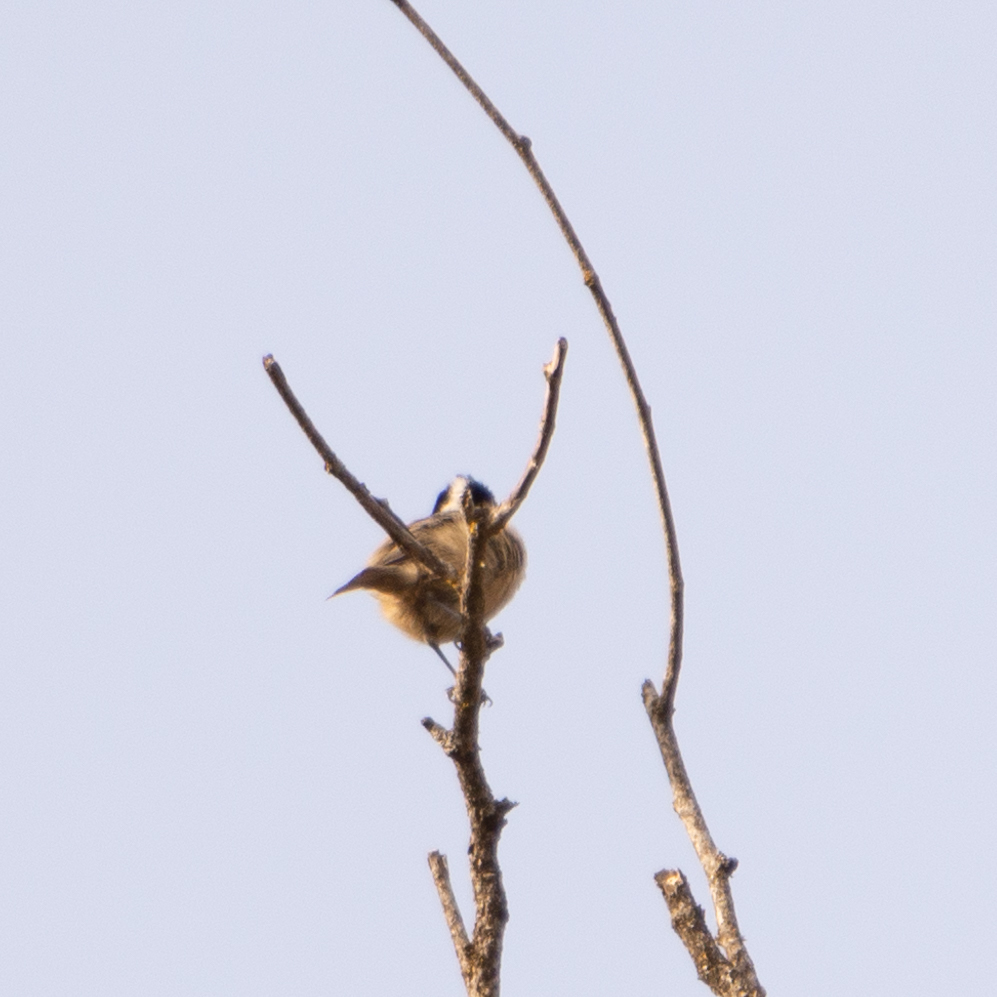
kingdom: Animalia
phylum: Chordata
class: Aves
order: Passeriformes
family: Paridae
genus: Periparus
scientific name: Periparus ater
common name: Coal tit
